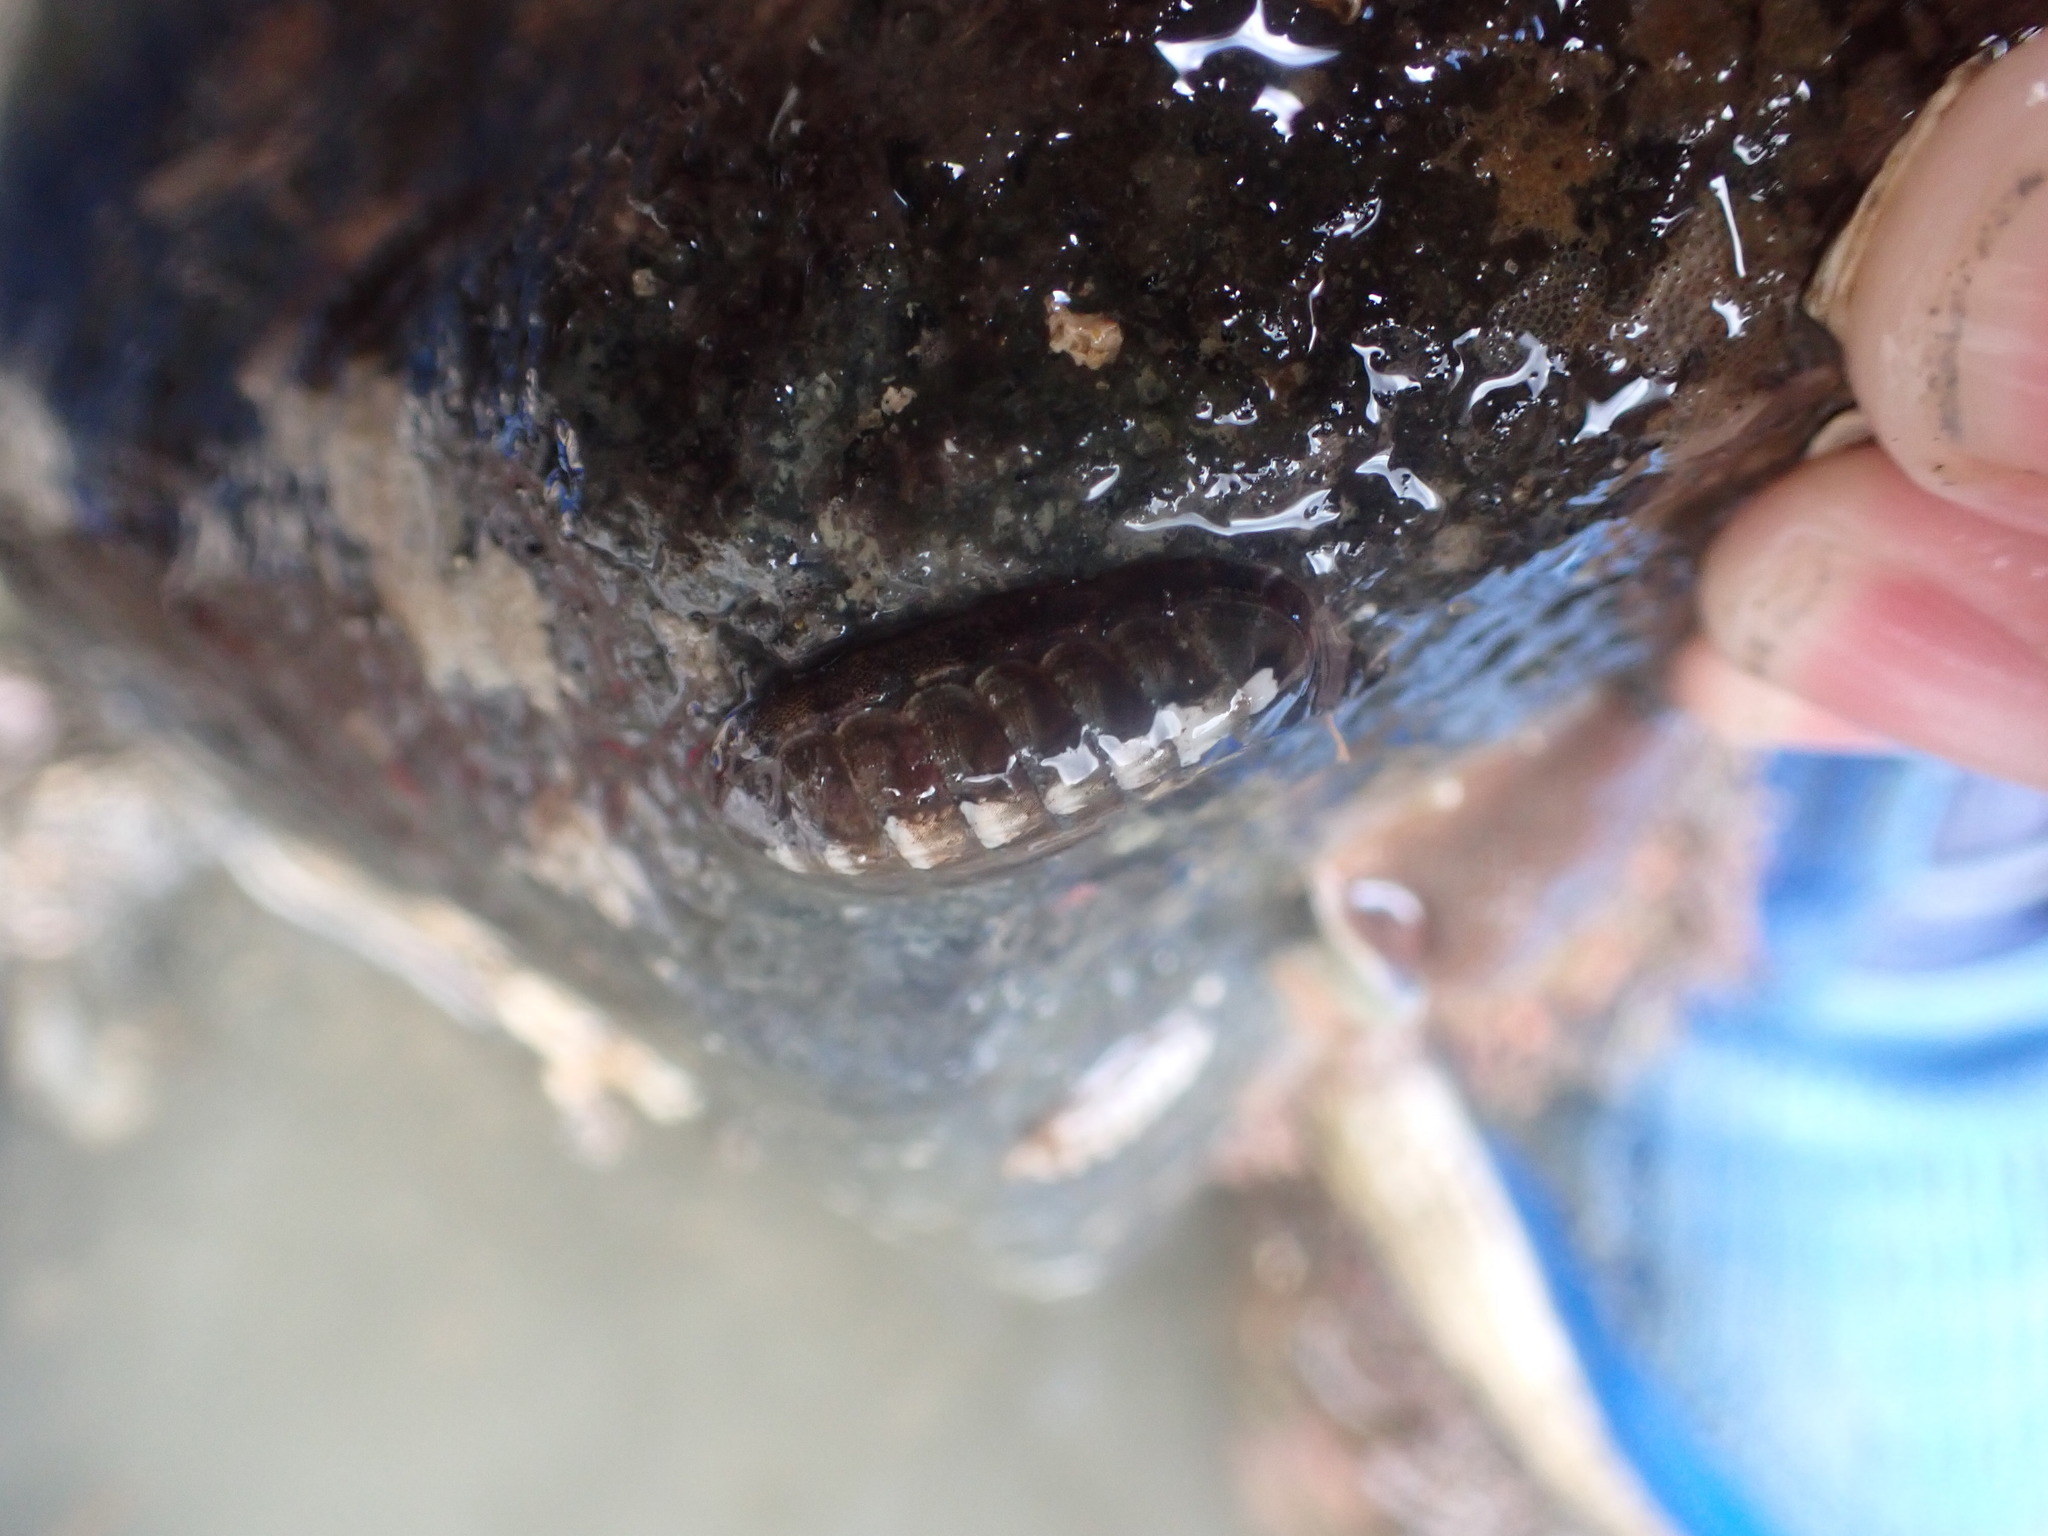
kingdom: Animalia
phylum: Mollusca
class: Polyplacophora
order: Chitonida
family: Ischnochitonidae
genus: Ischnochiton
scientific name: Ischnochiton maorianus
